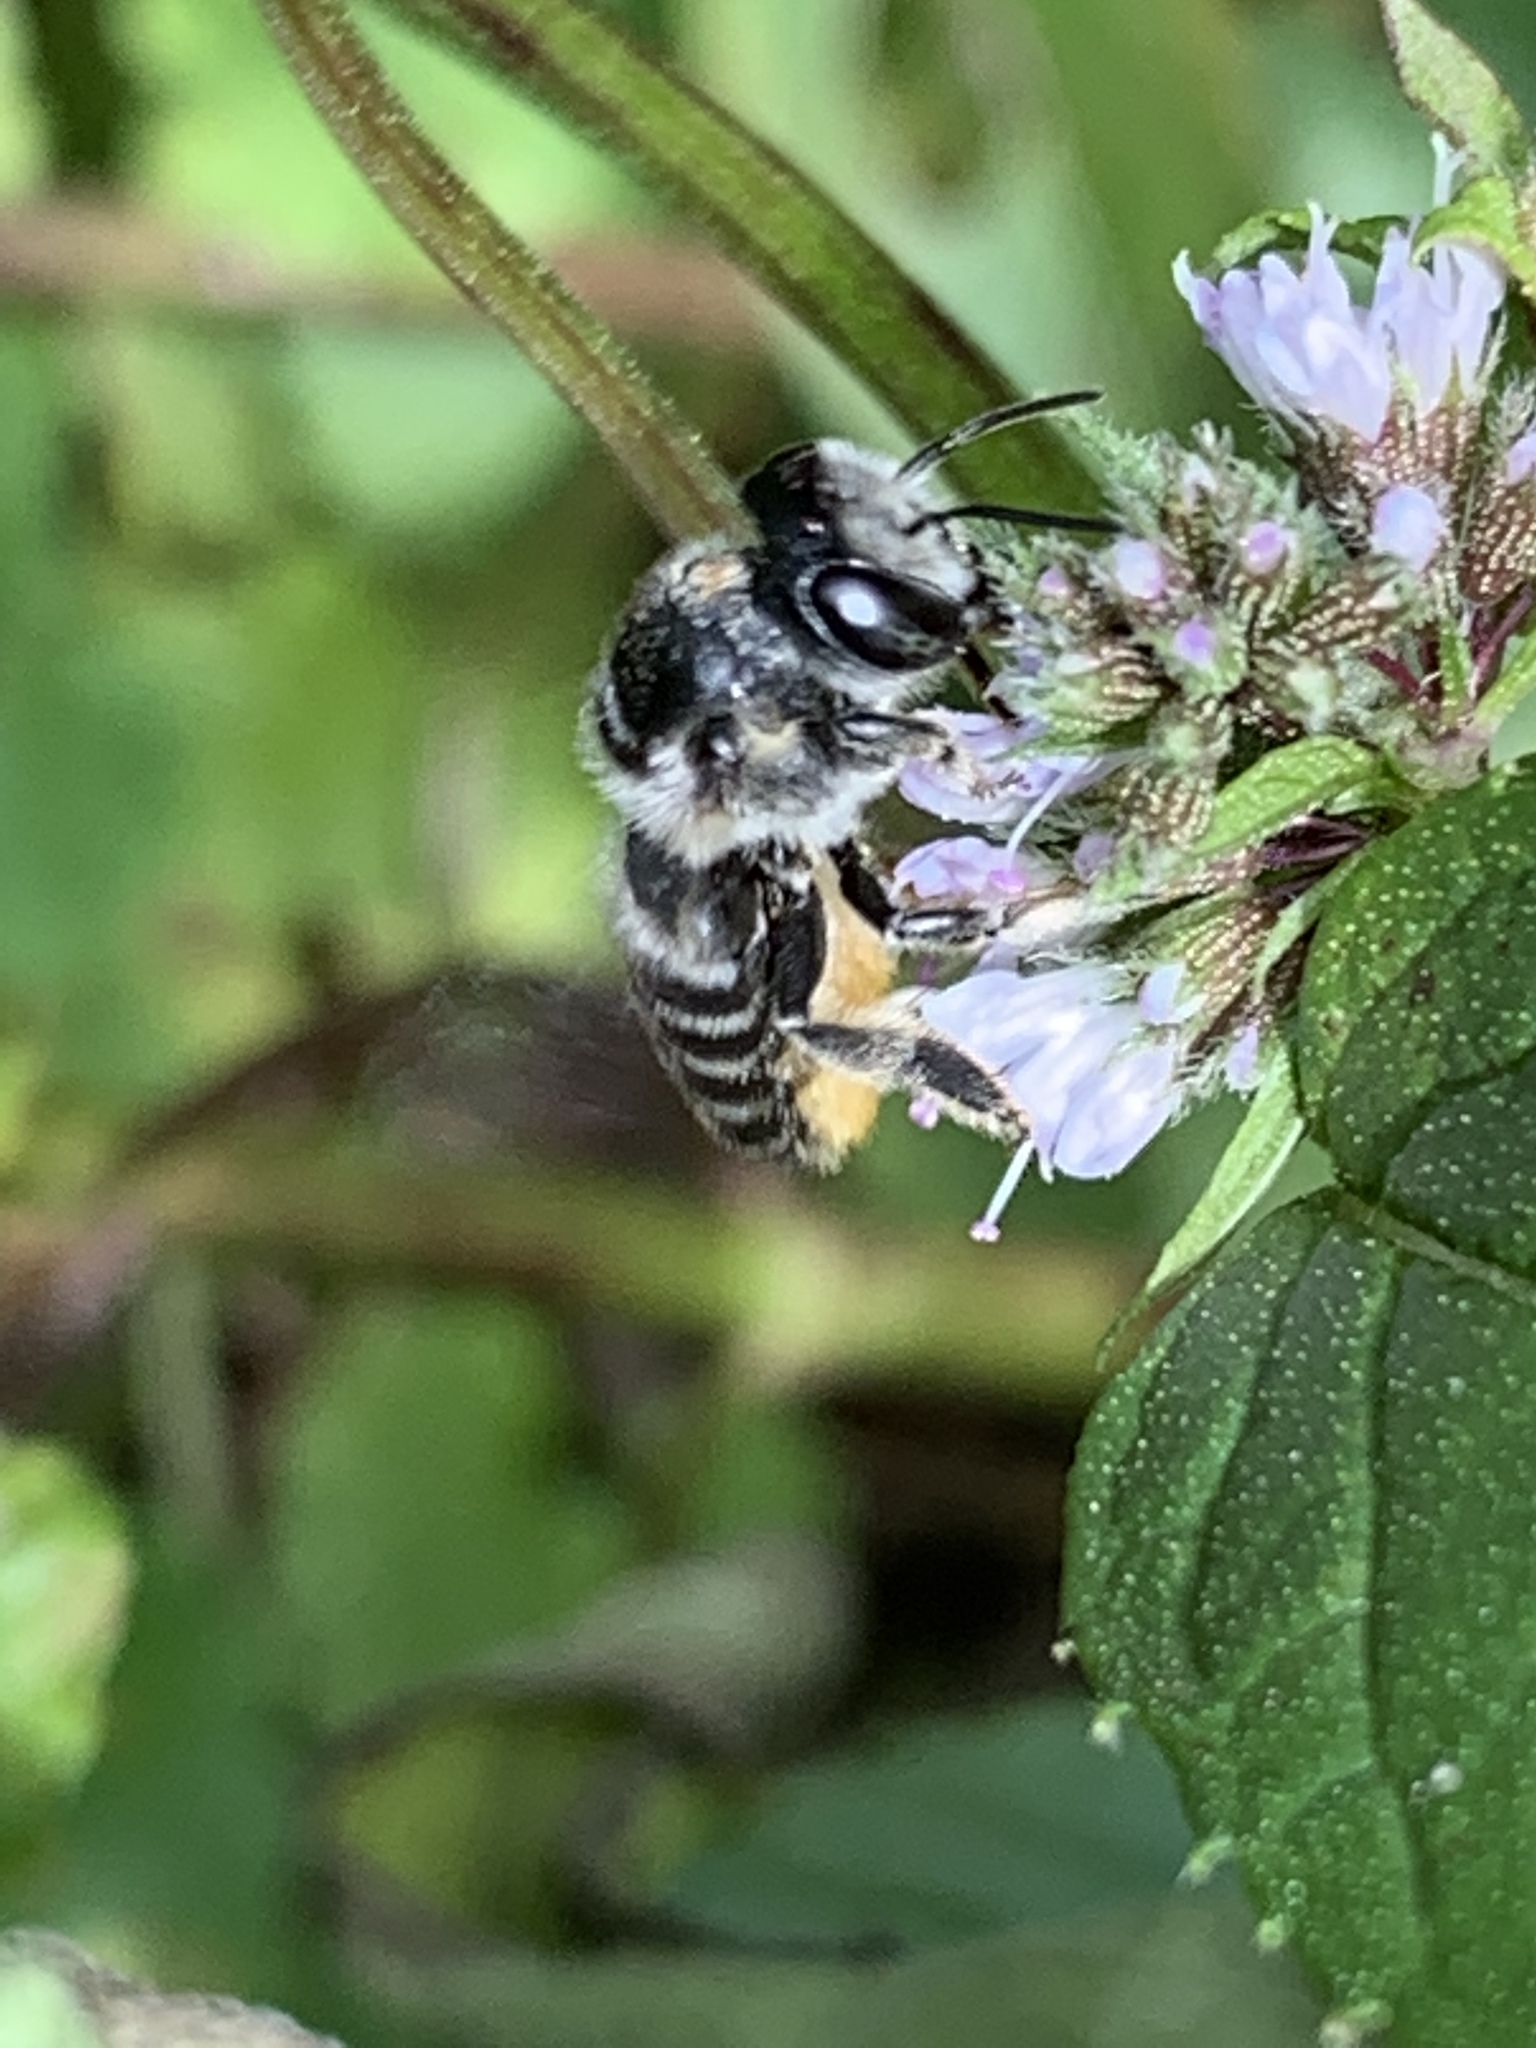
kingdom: Animalia
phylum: Arthropoda
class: Insecta
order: Hymenoptera
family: Megachilidae
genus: Megachile
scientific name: Megachile
